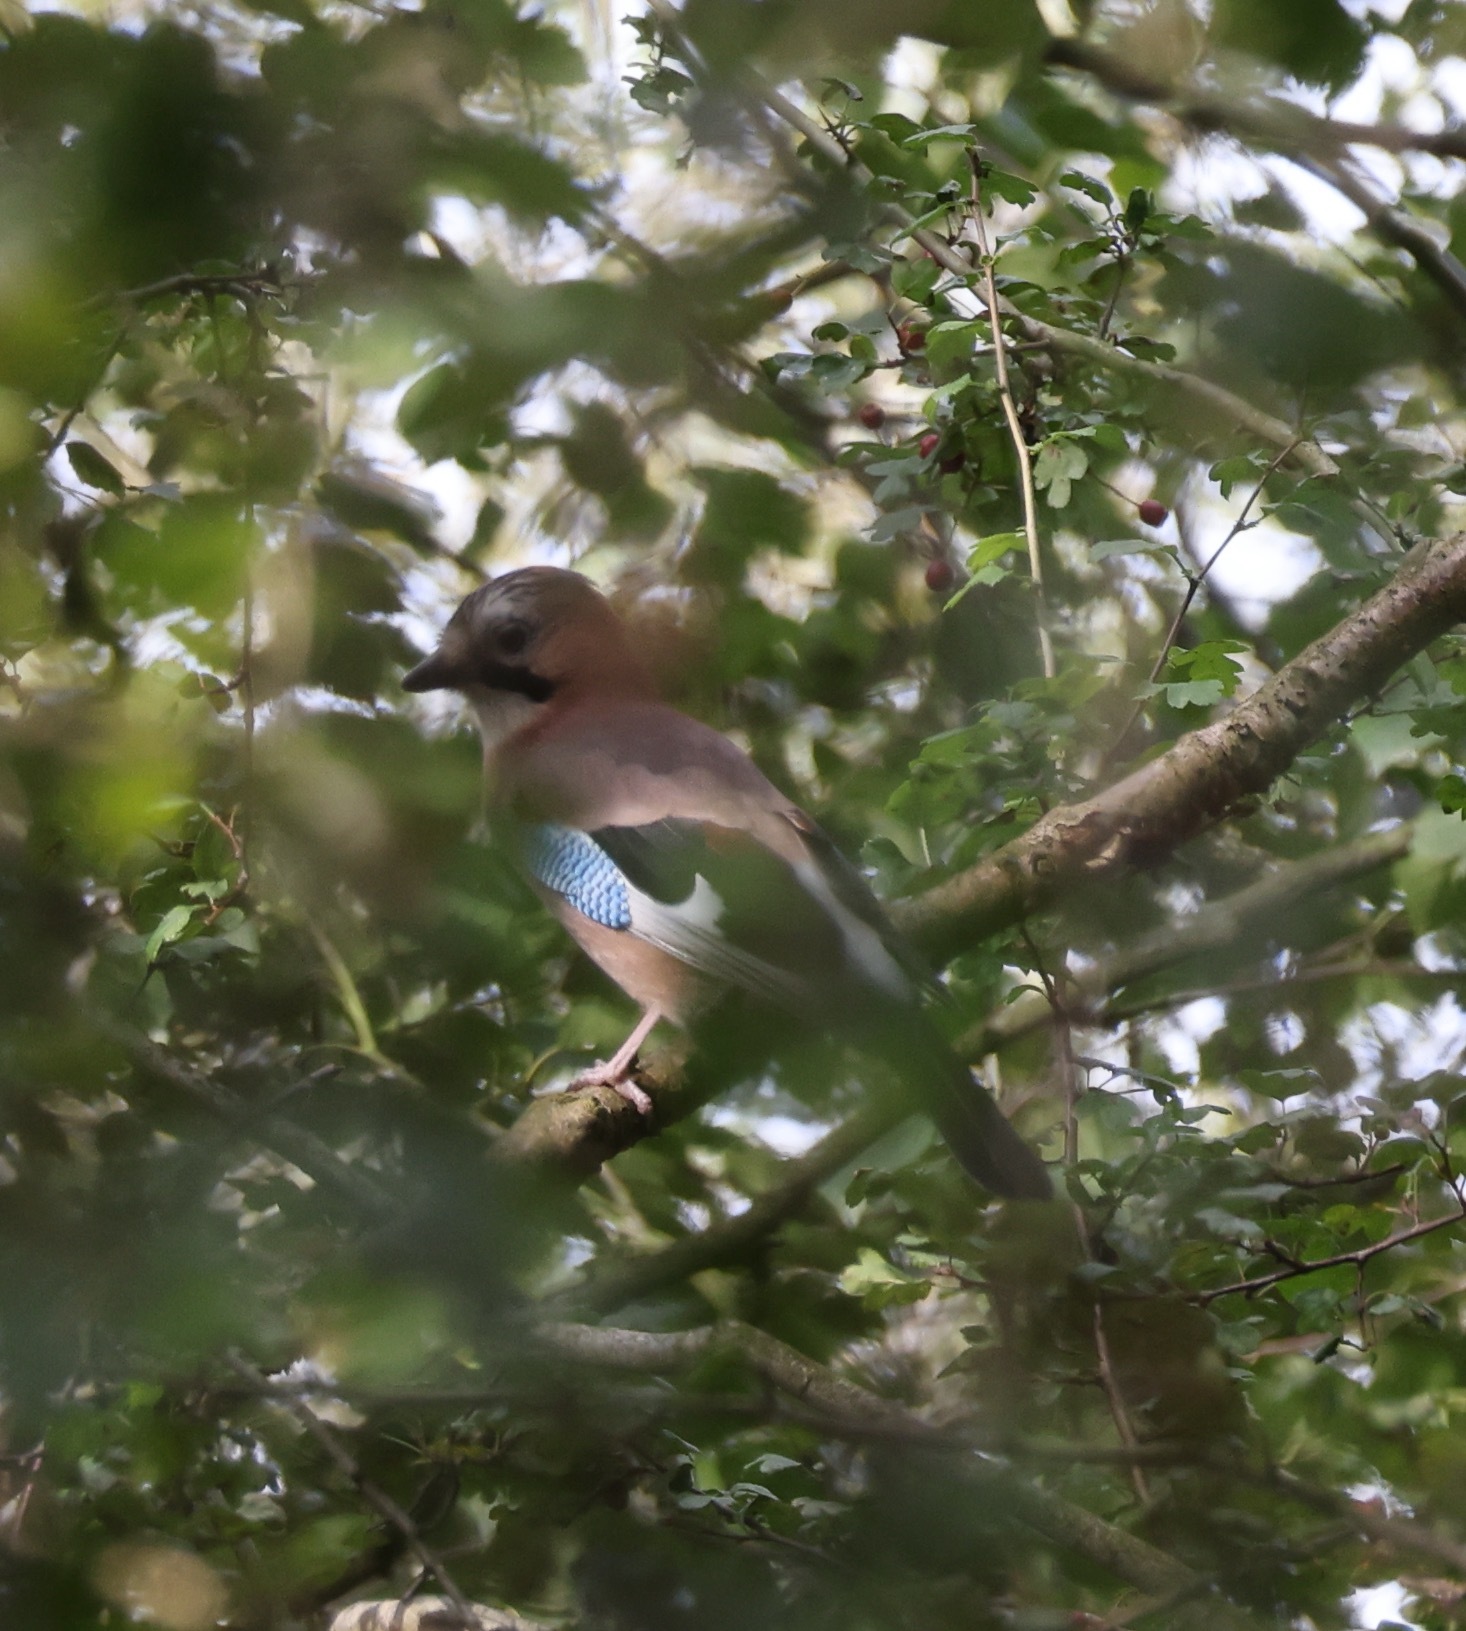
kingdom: Animalia
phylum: Chordata
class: Aves
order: Passeriformes
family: Corvidae
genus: Garrulus
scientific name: Garrulus glandarius
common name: Eurasian jay
